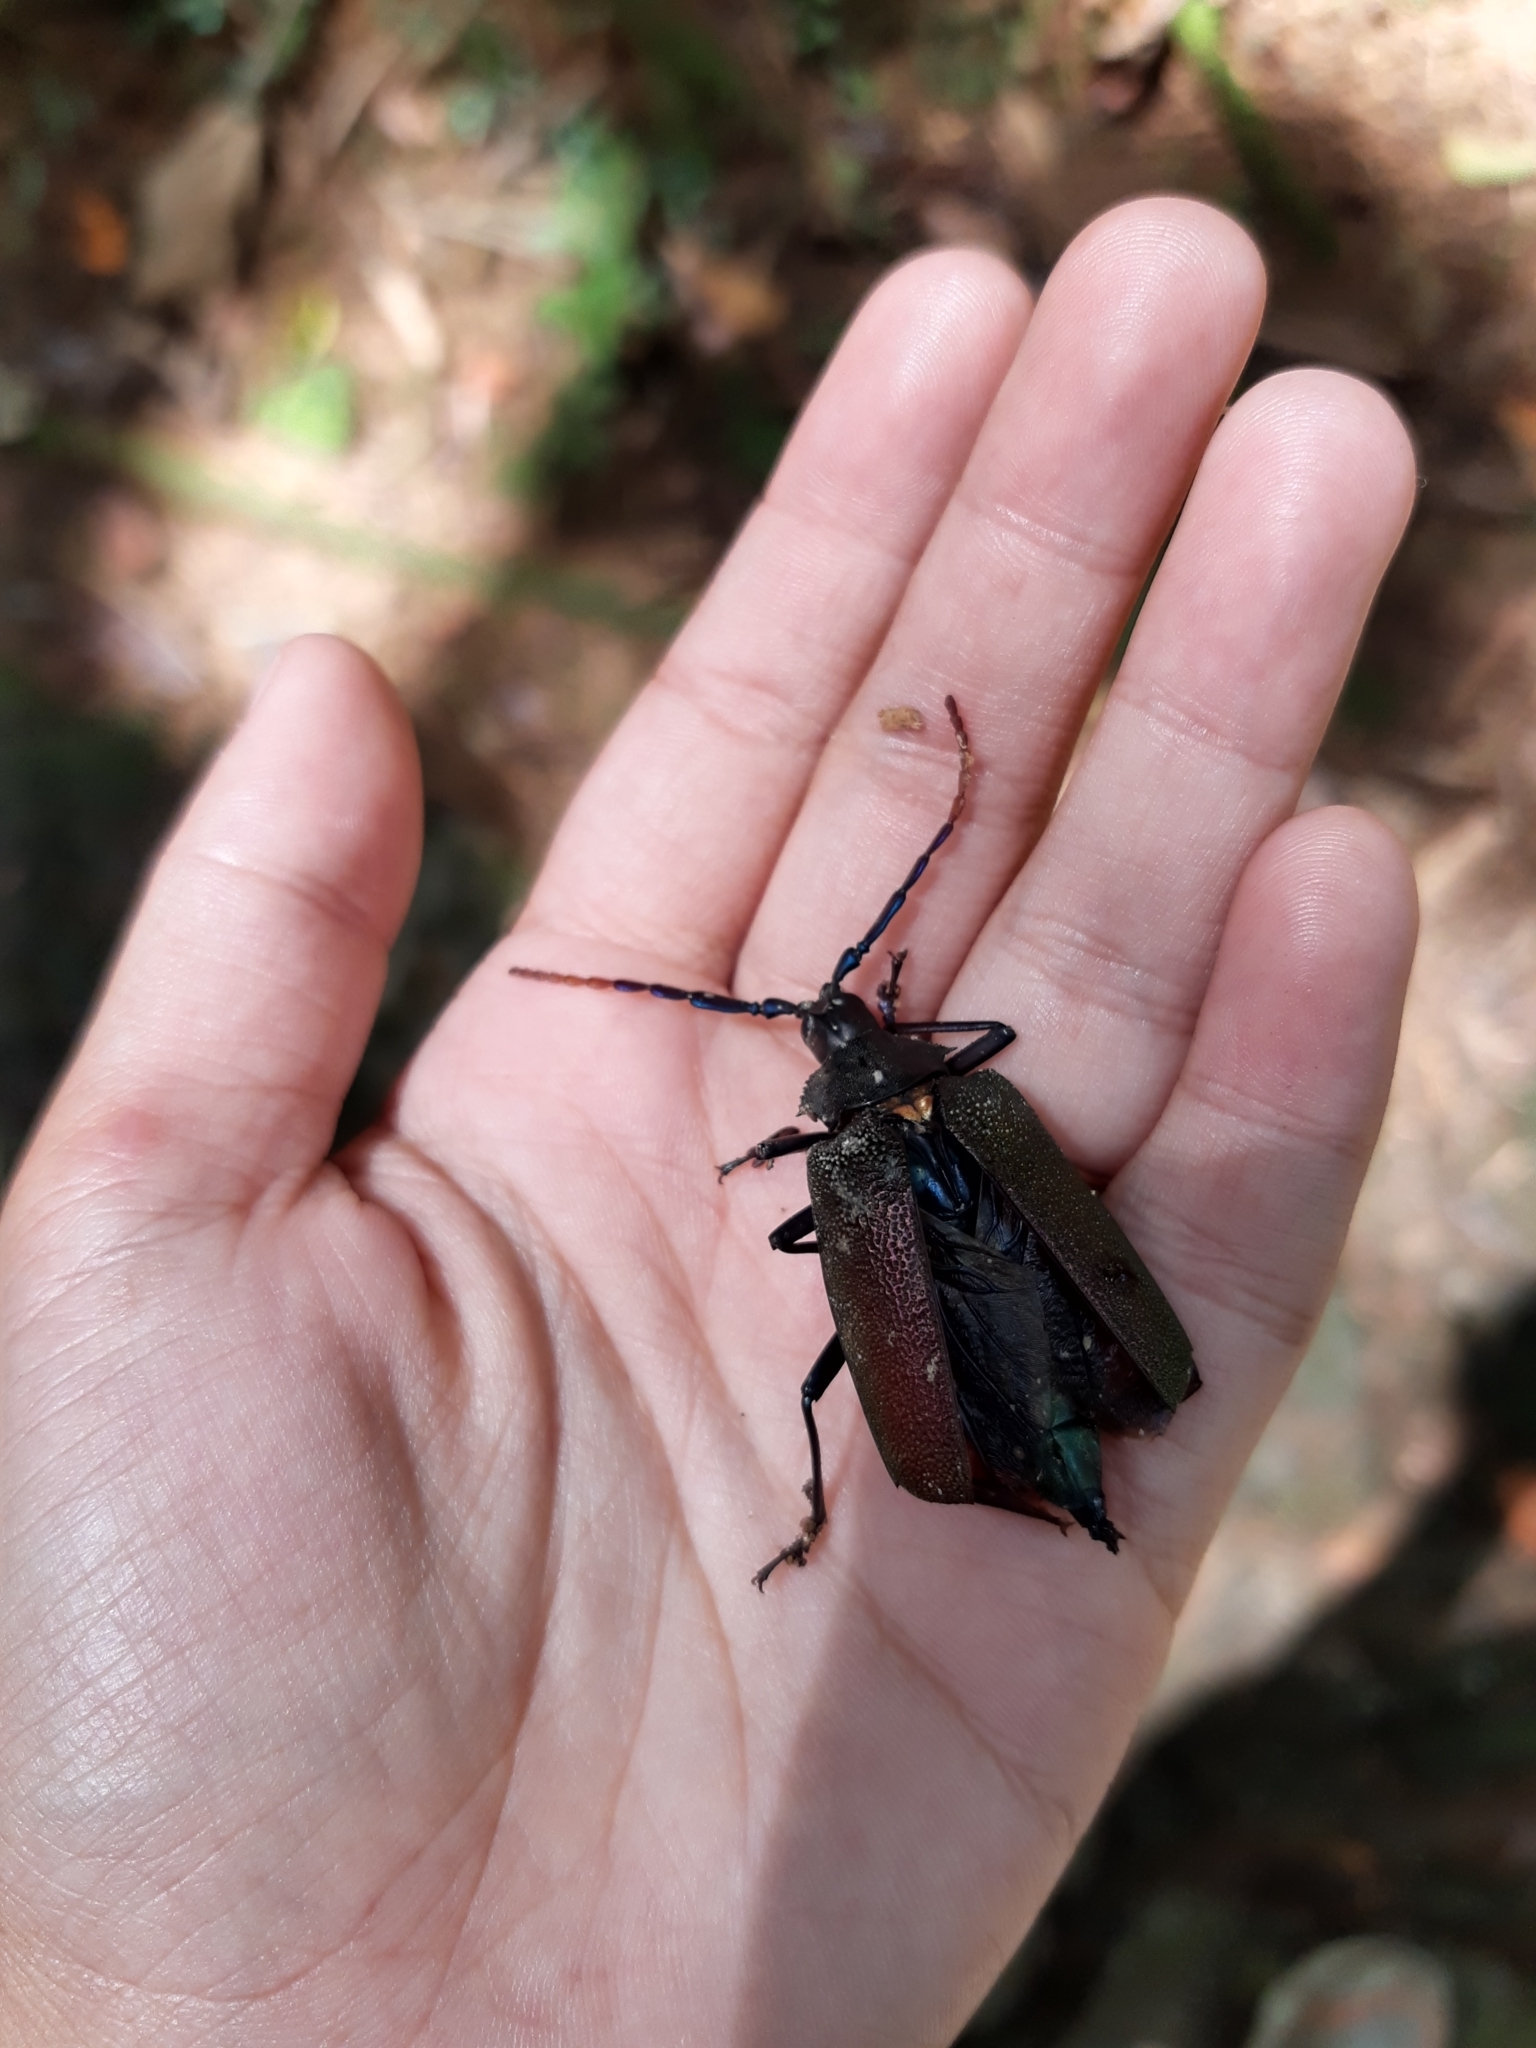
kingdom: Animalia
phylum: Arthropoda
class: Insecta
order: Coleoptera
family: Cerambycidae
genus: Praemallaspis
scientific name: Praemallaspis leucaspis
